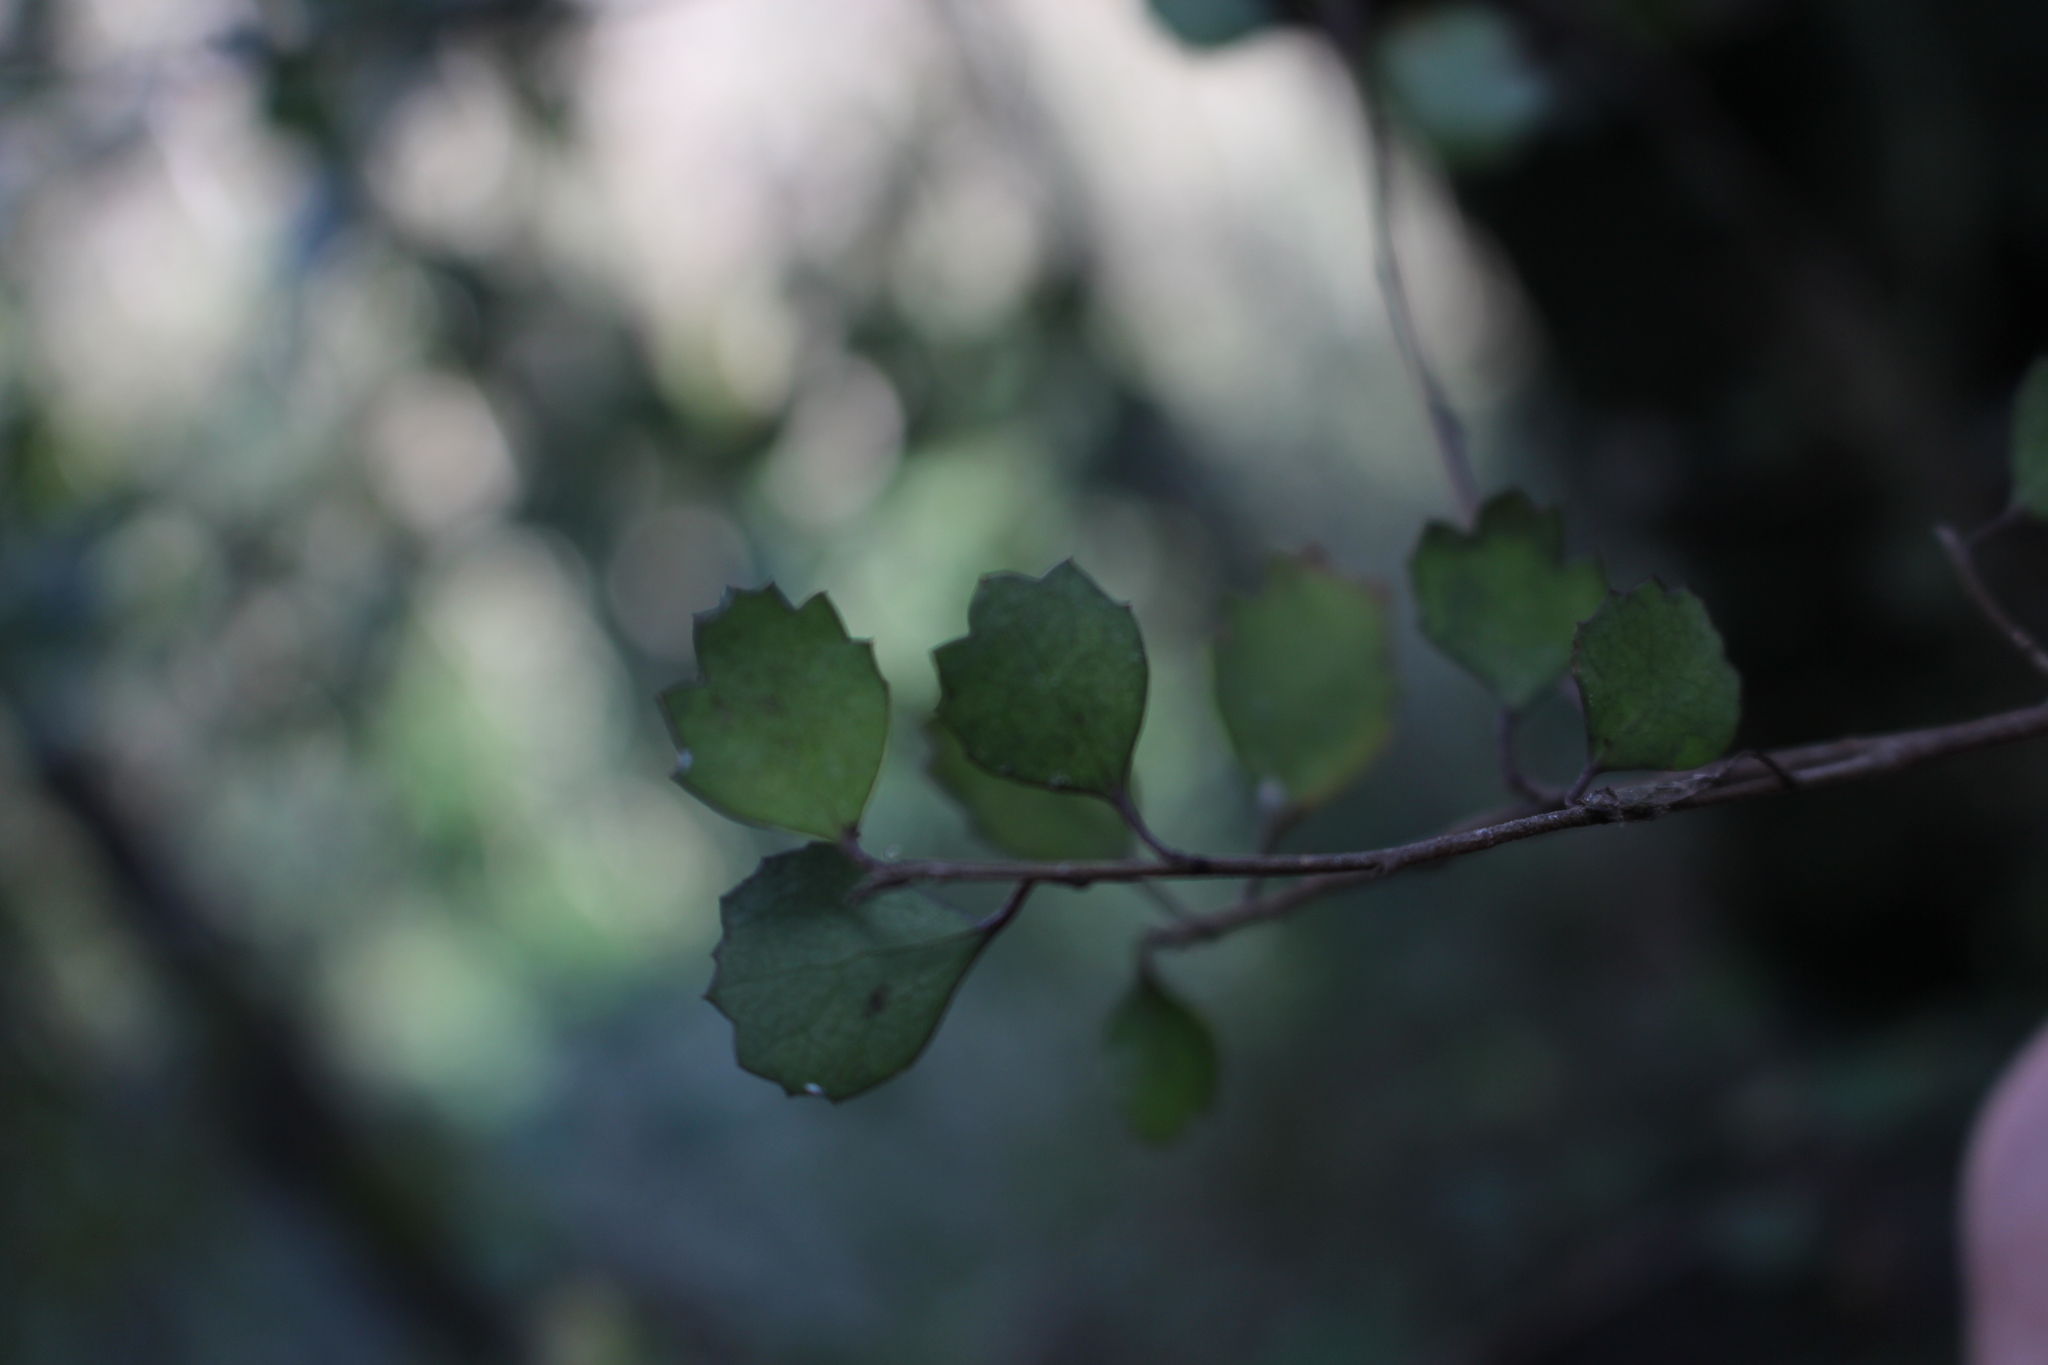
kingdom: Plantae
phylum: Tracheophyta
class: Magnoliopsida
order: Malvales
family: Malvaceae
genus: Hoheria
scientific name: Hoheria angustifolia
